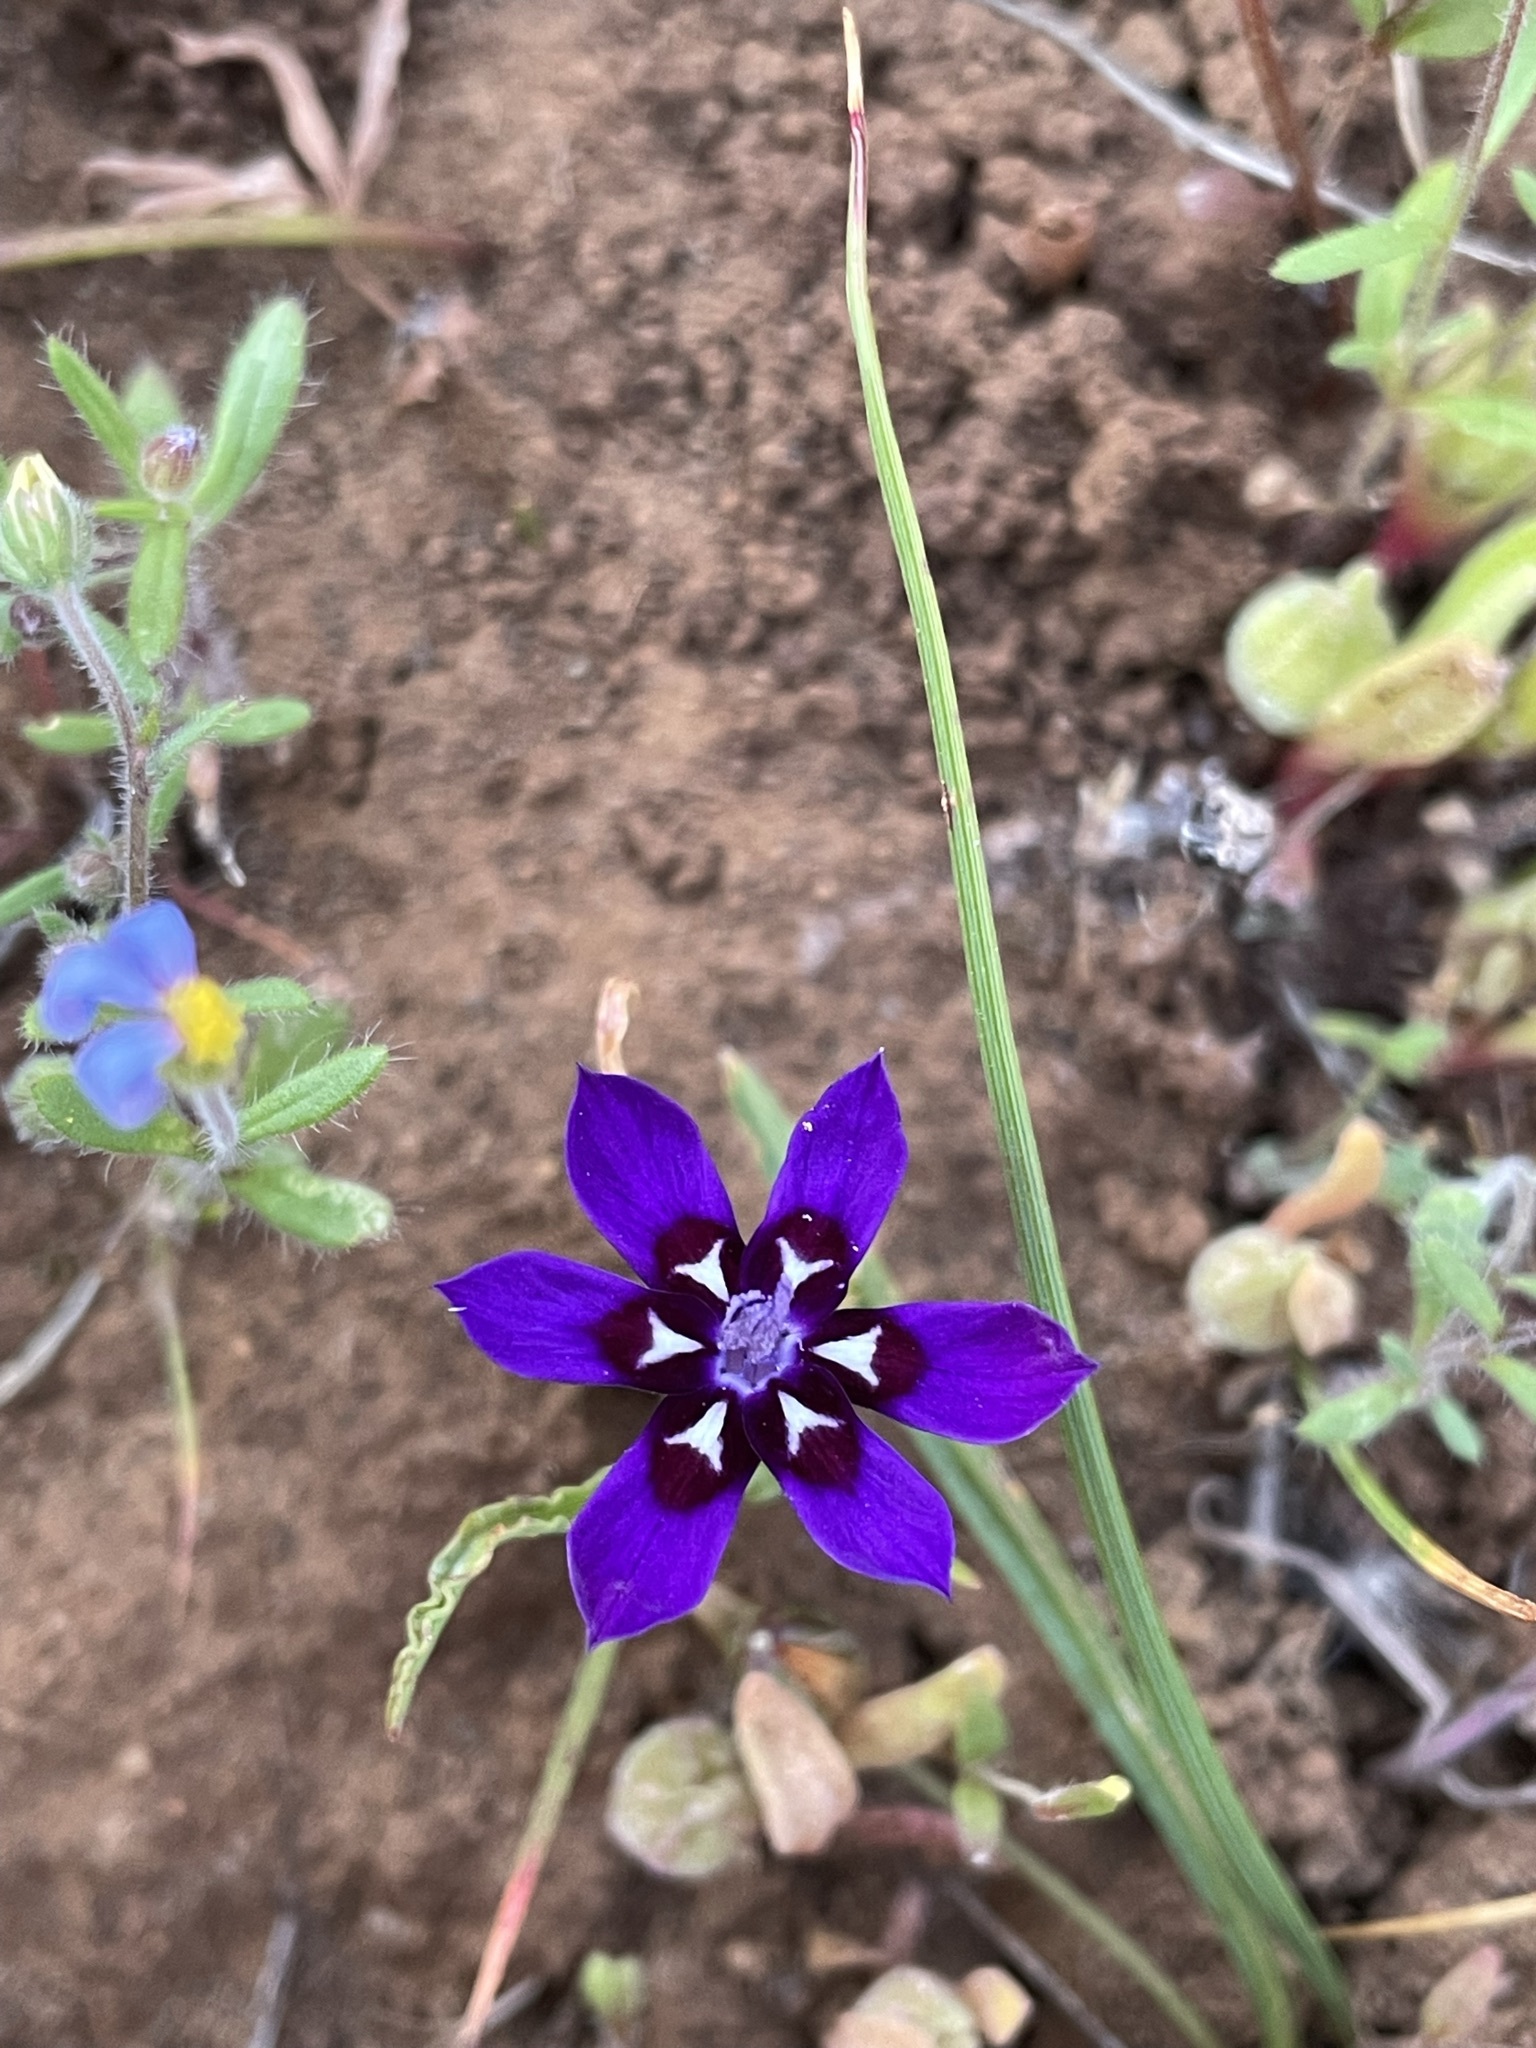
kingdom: Plantae
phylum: Tracheophyta
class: Liliopsida
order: Asparagales
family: Iridaceae
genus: Lapeirousia
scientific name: Lapeirousia oreogena
